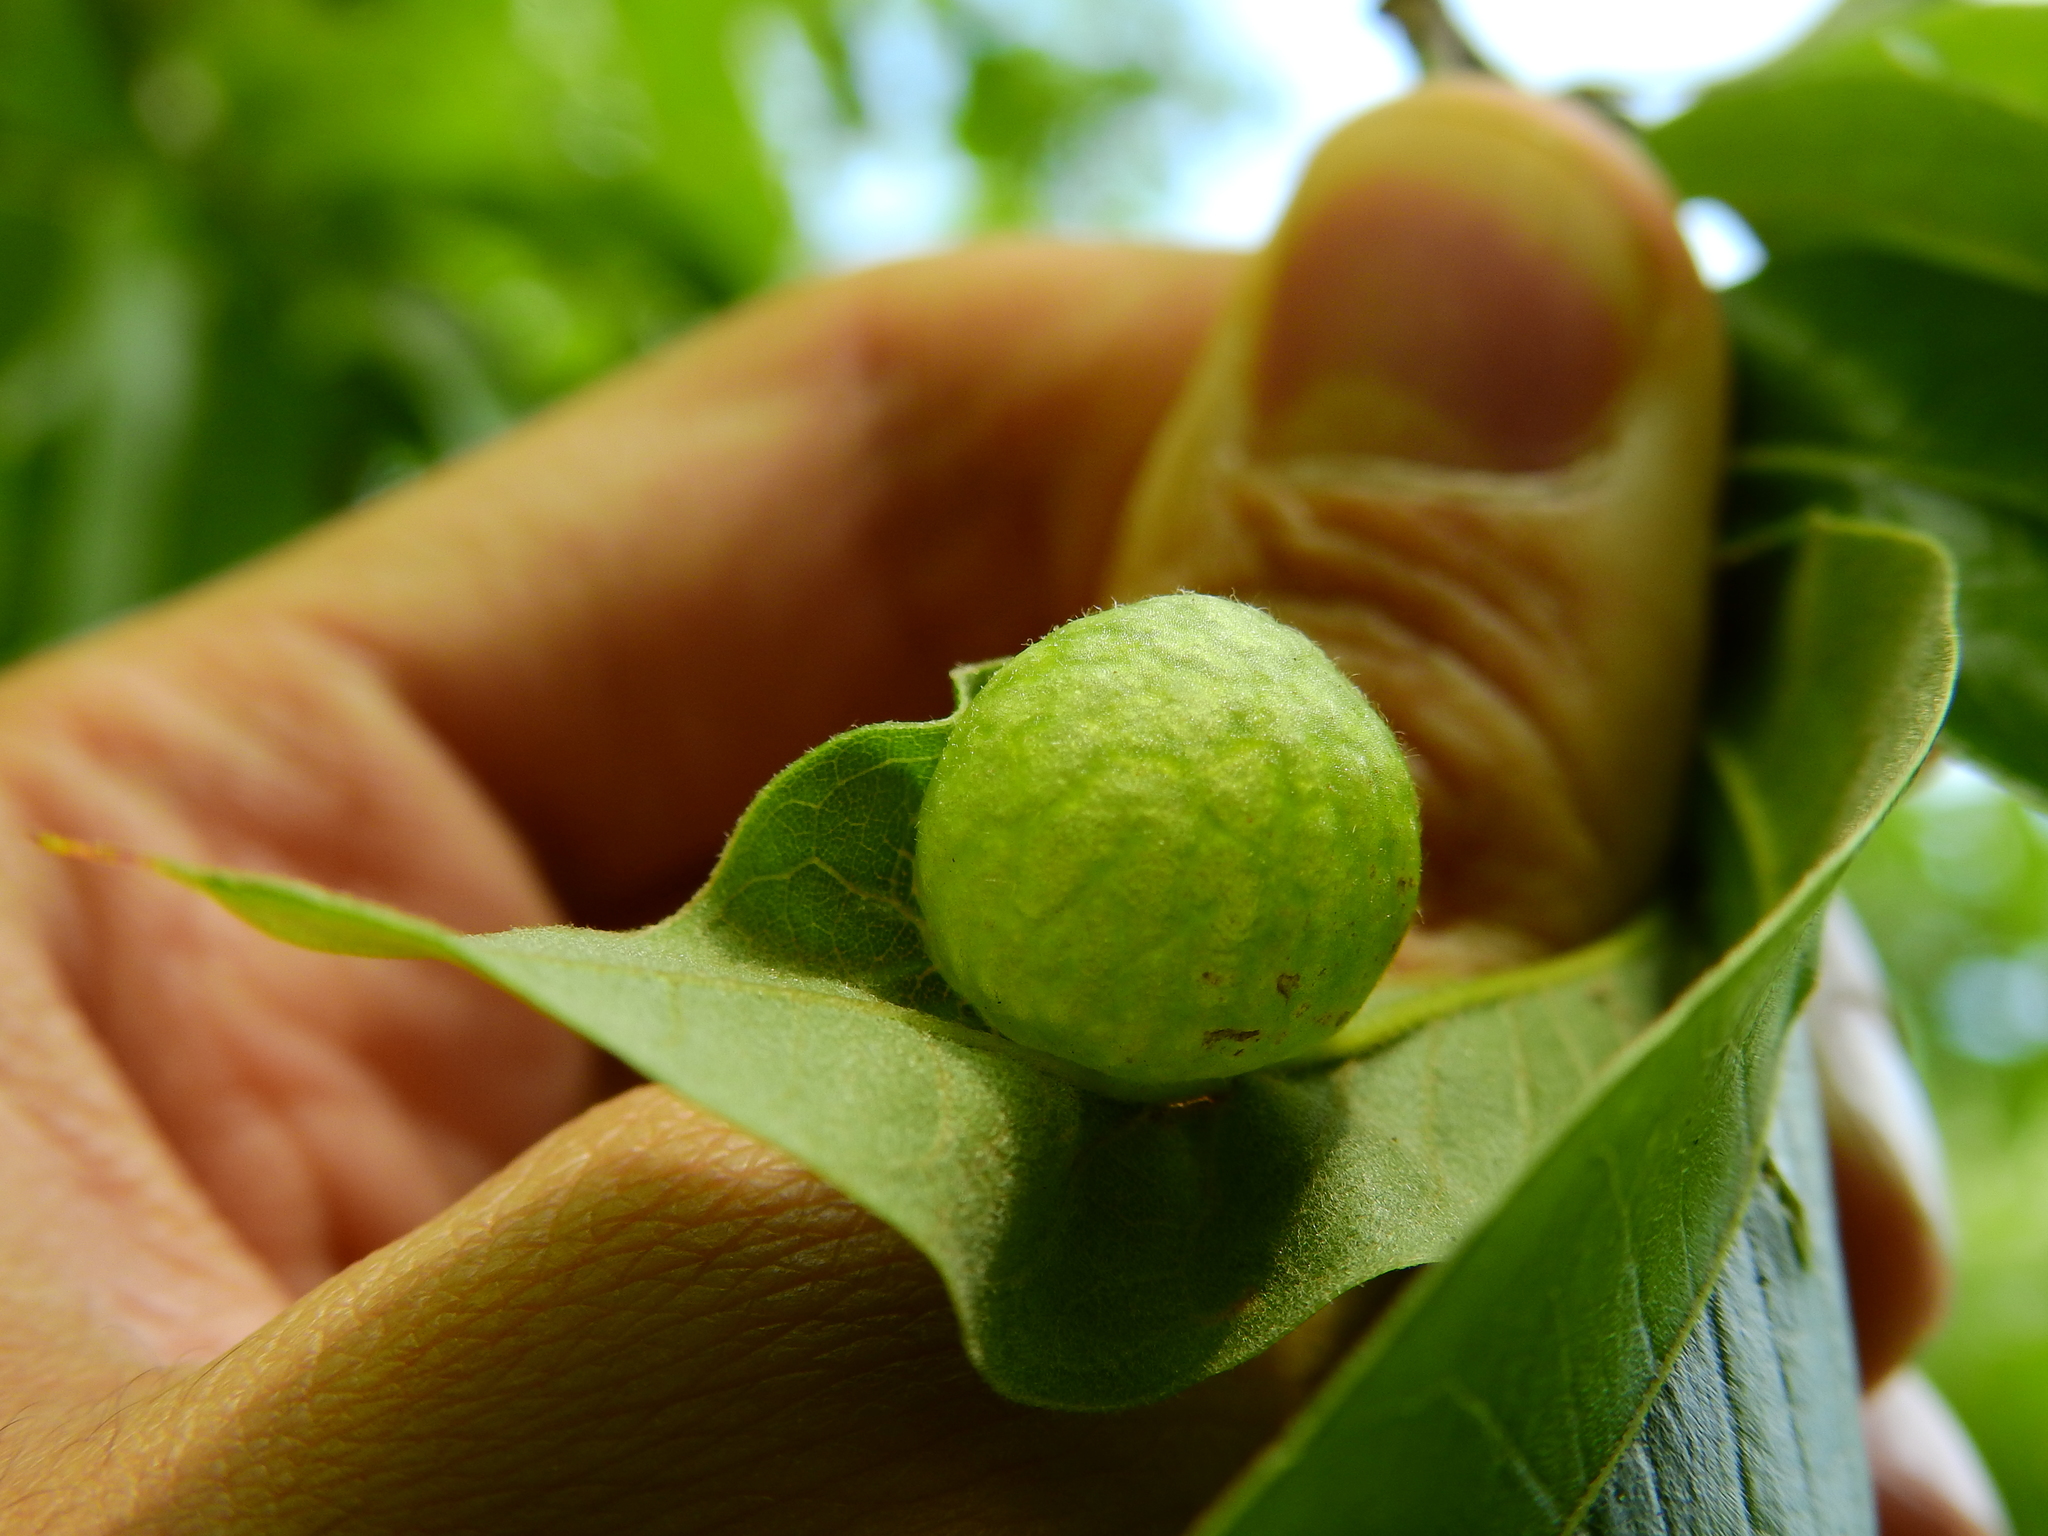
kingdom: Animalia
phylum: Arthropoda
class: Insecta
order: Hymenoptera
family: Cynipidae
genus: Amphibolips
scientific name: Amphibolips
